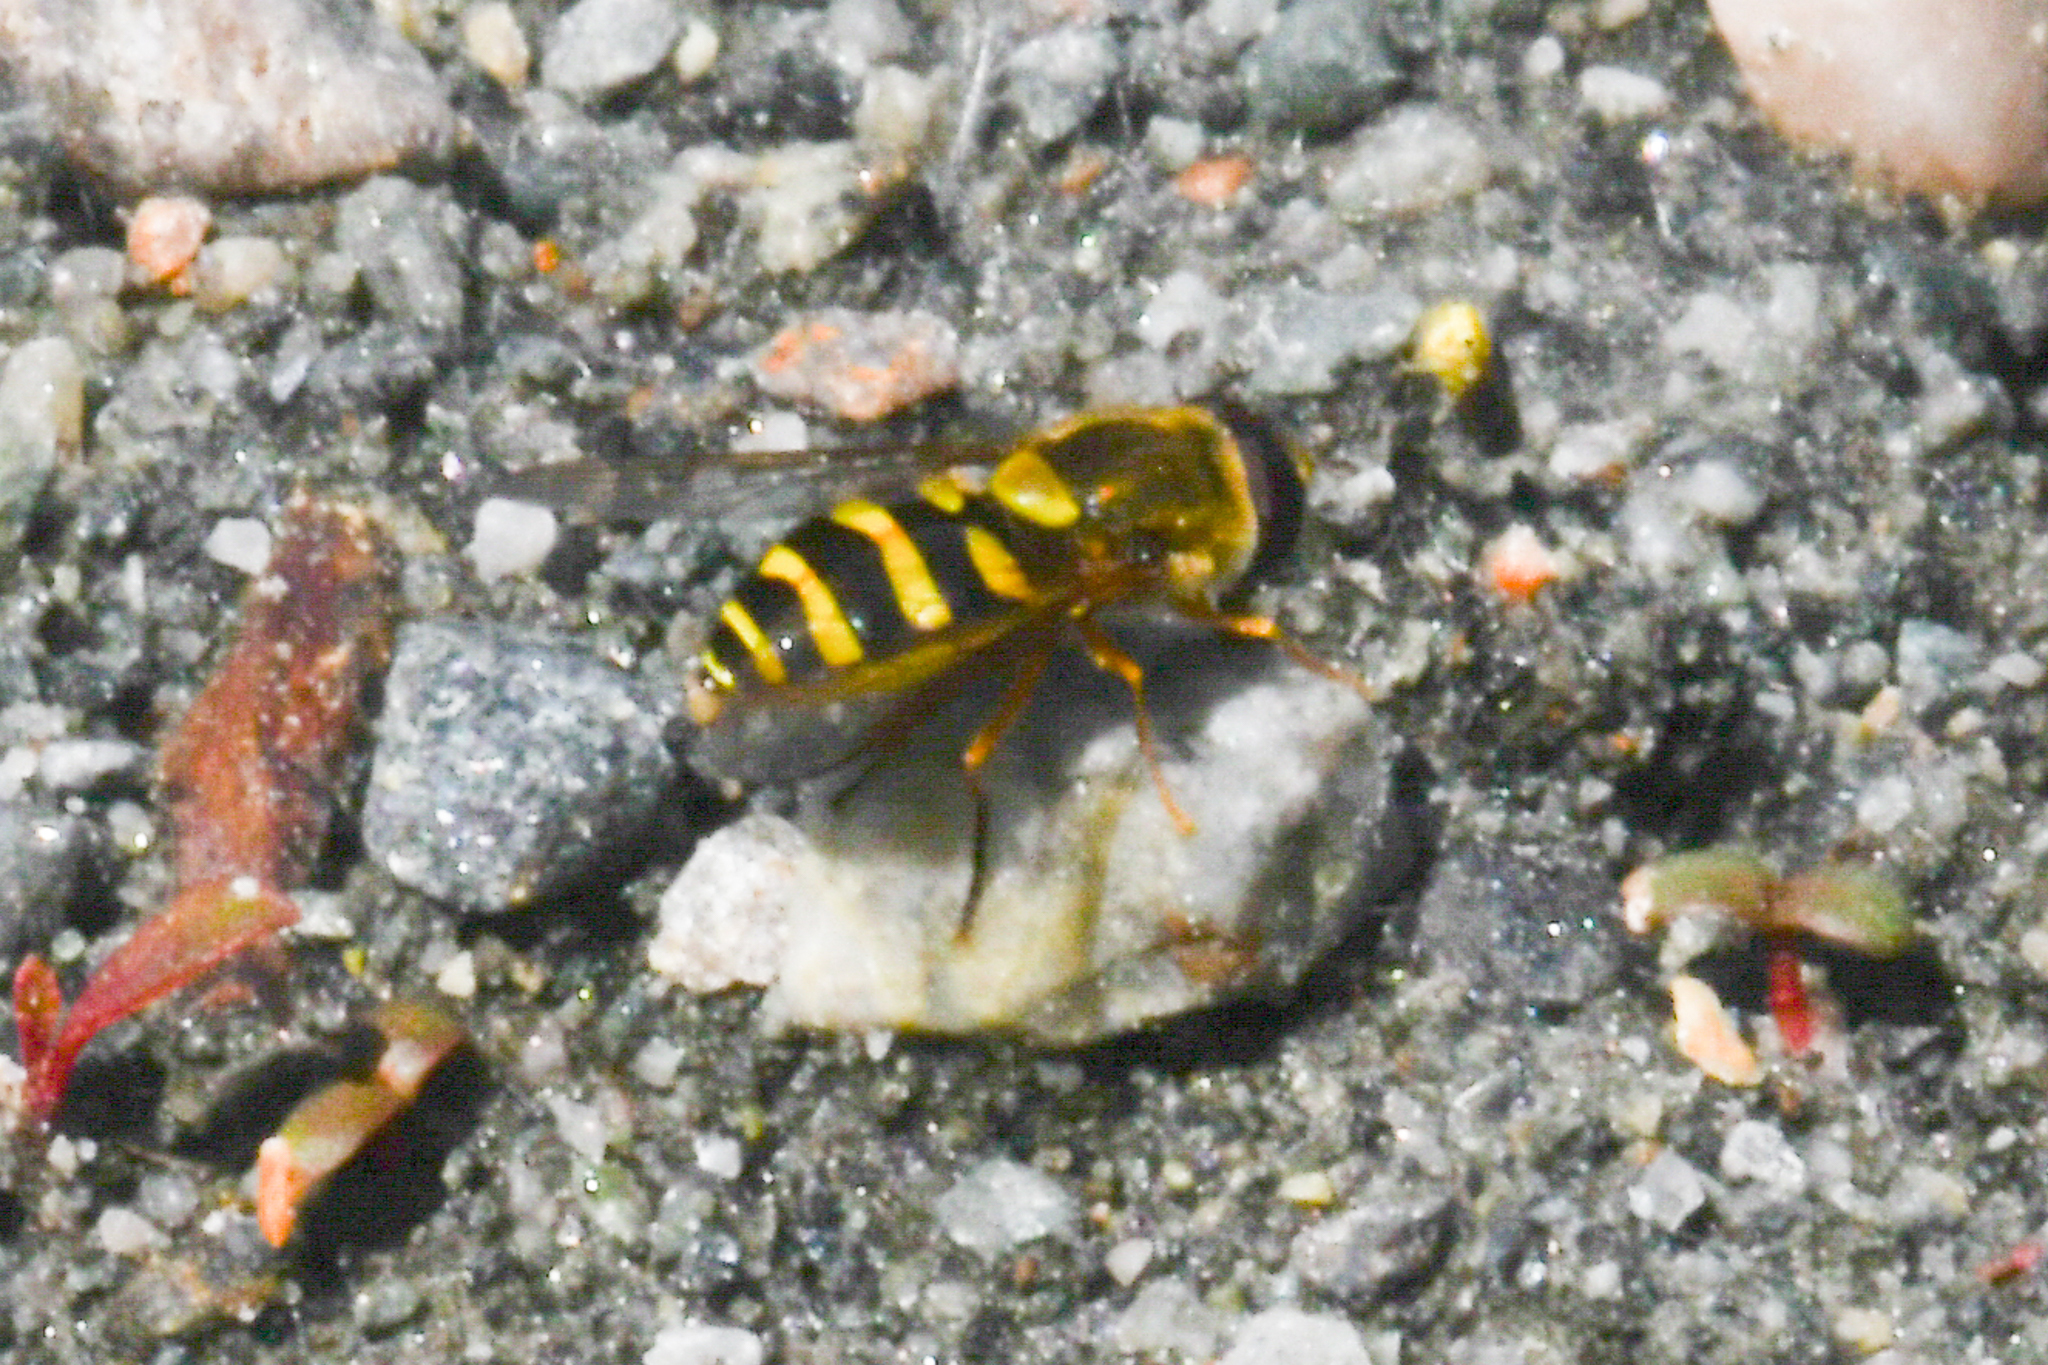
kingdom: Animalia
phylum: Arthropoda
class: Insecta
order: Diptera
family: Syrphidae
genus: Syrphus
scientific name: Syrphus opinator
